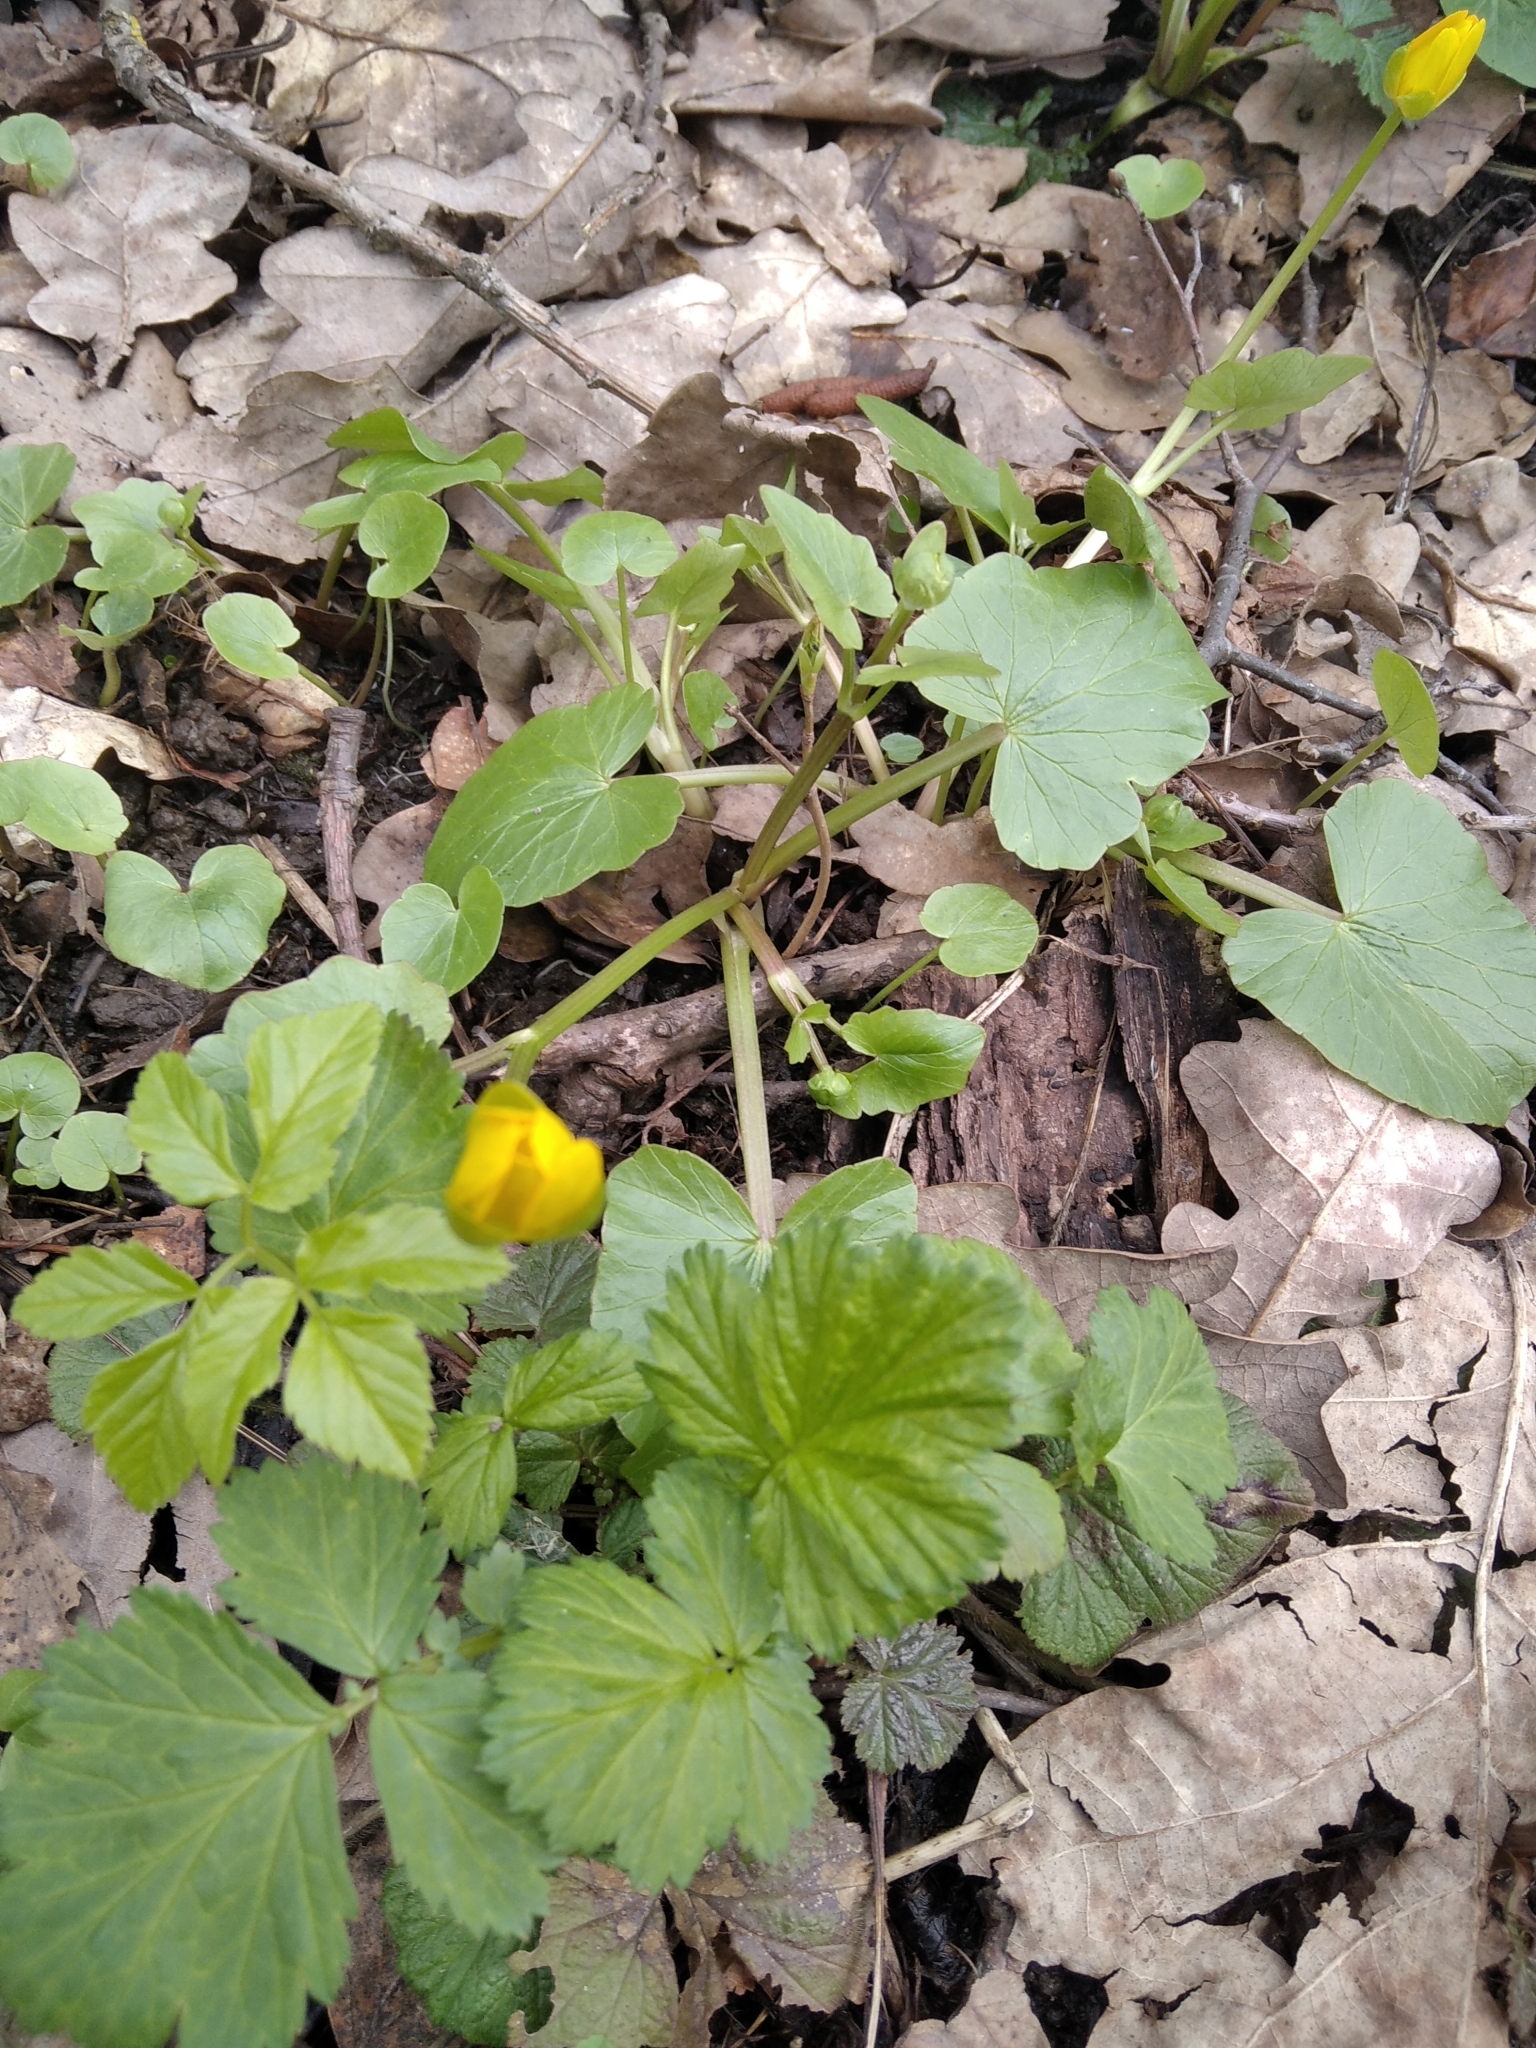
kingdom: Plantae
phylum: Tracheophyta
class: Magnoliopsida
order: Ranunculales
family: Ranunculaceae
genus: Ficaria
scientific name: Ficaria verna
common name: Lesser celandine
